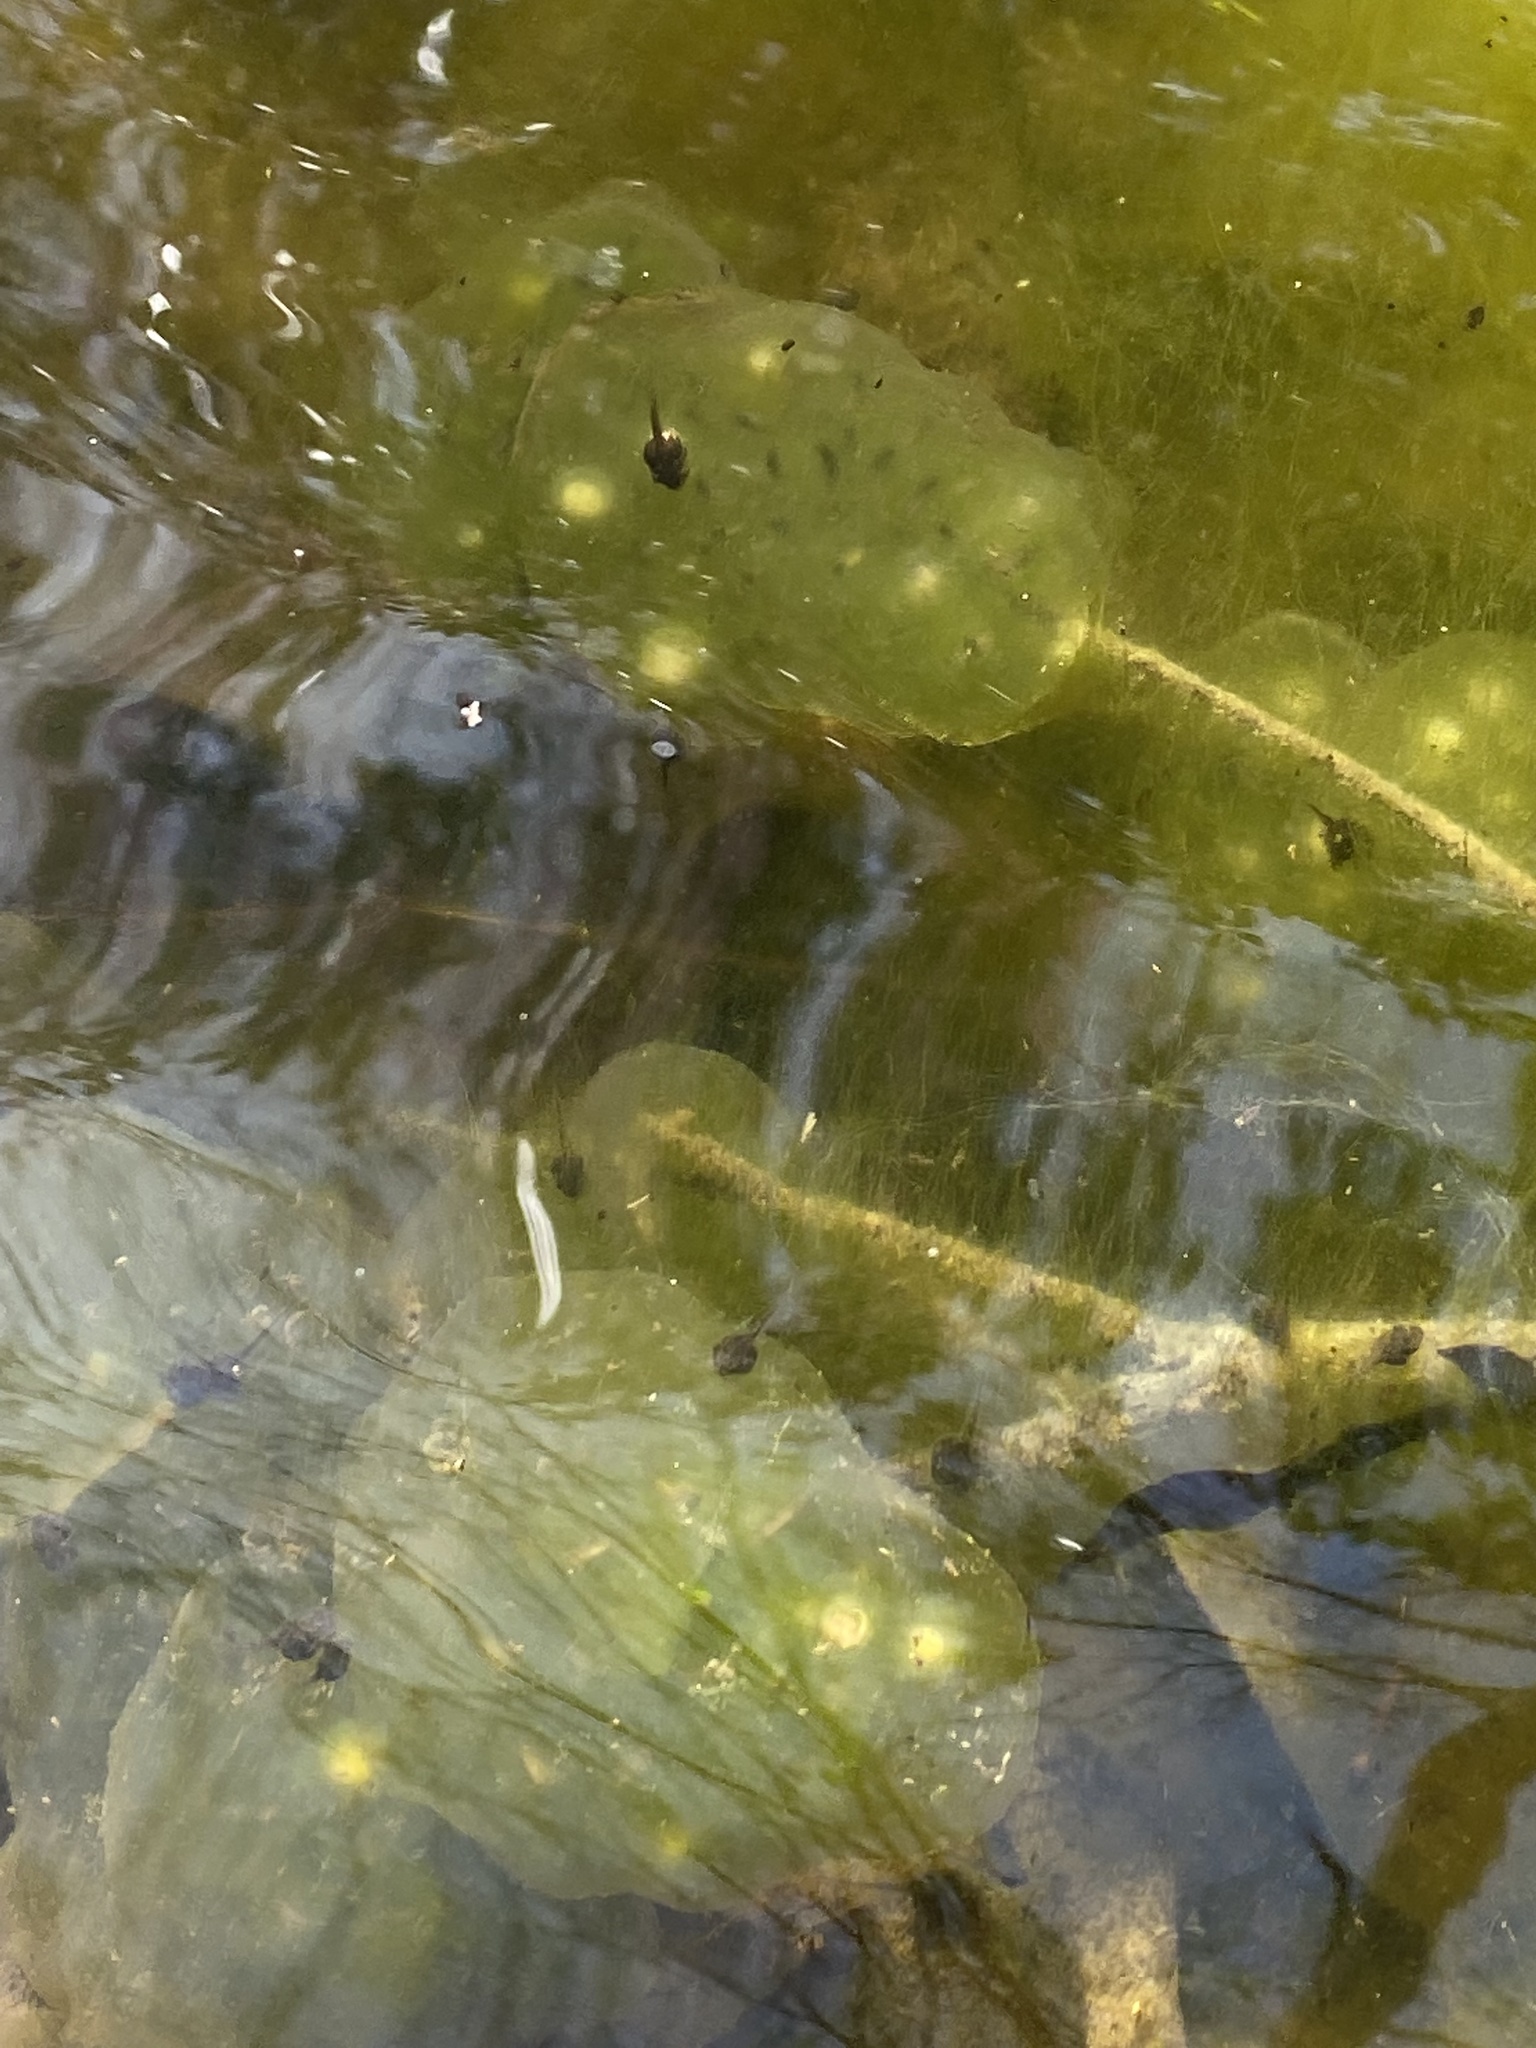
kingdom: Animalia
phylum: Chordata
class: Amphibia
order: Caudata
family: Ambystomatidae
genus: Ambystoma
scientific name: Ambystoma maculatum
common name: Spotted salamander
